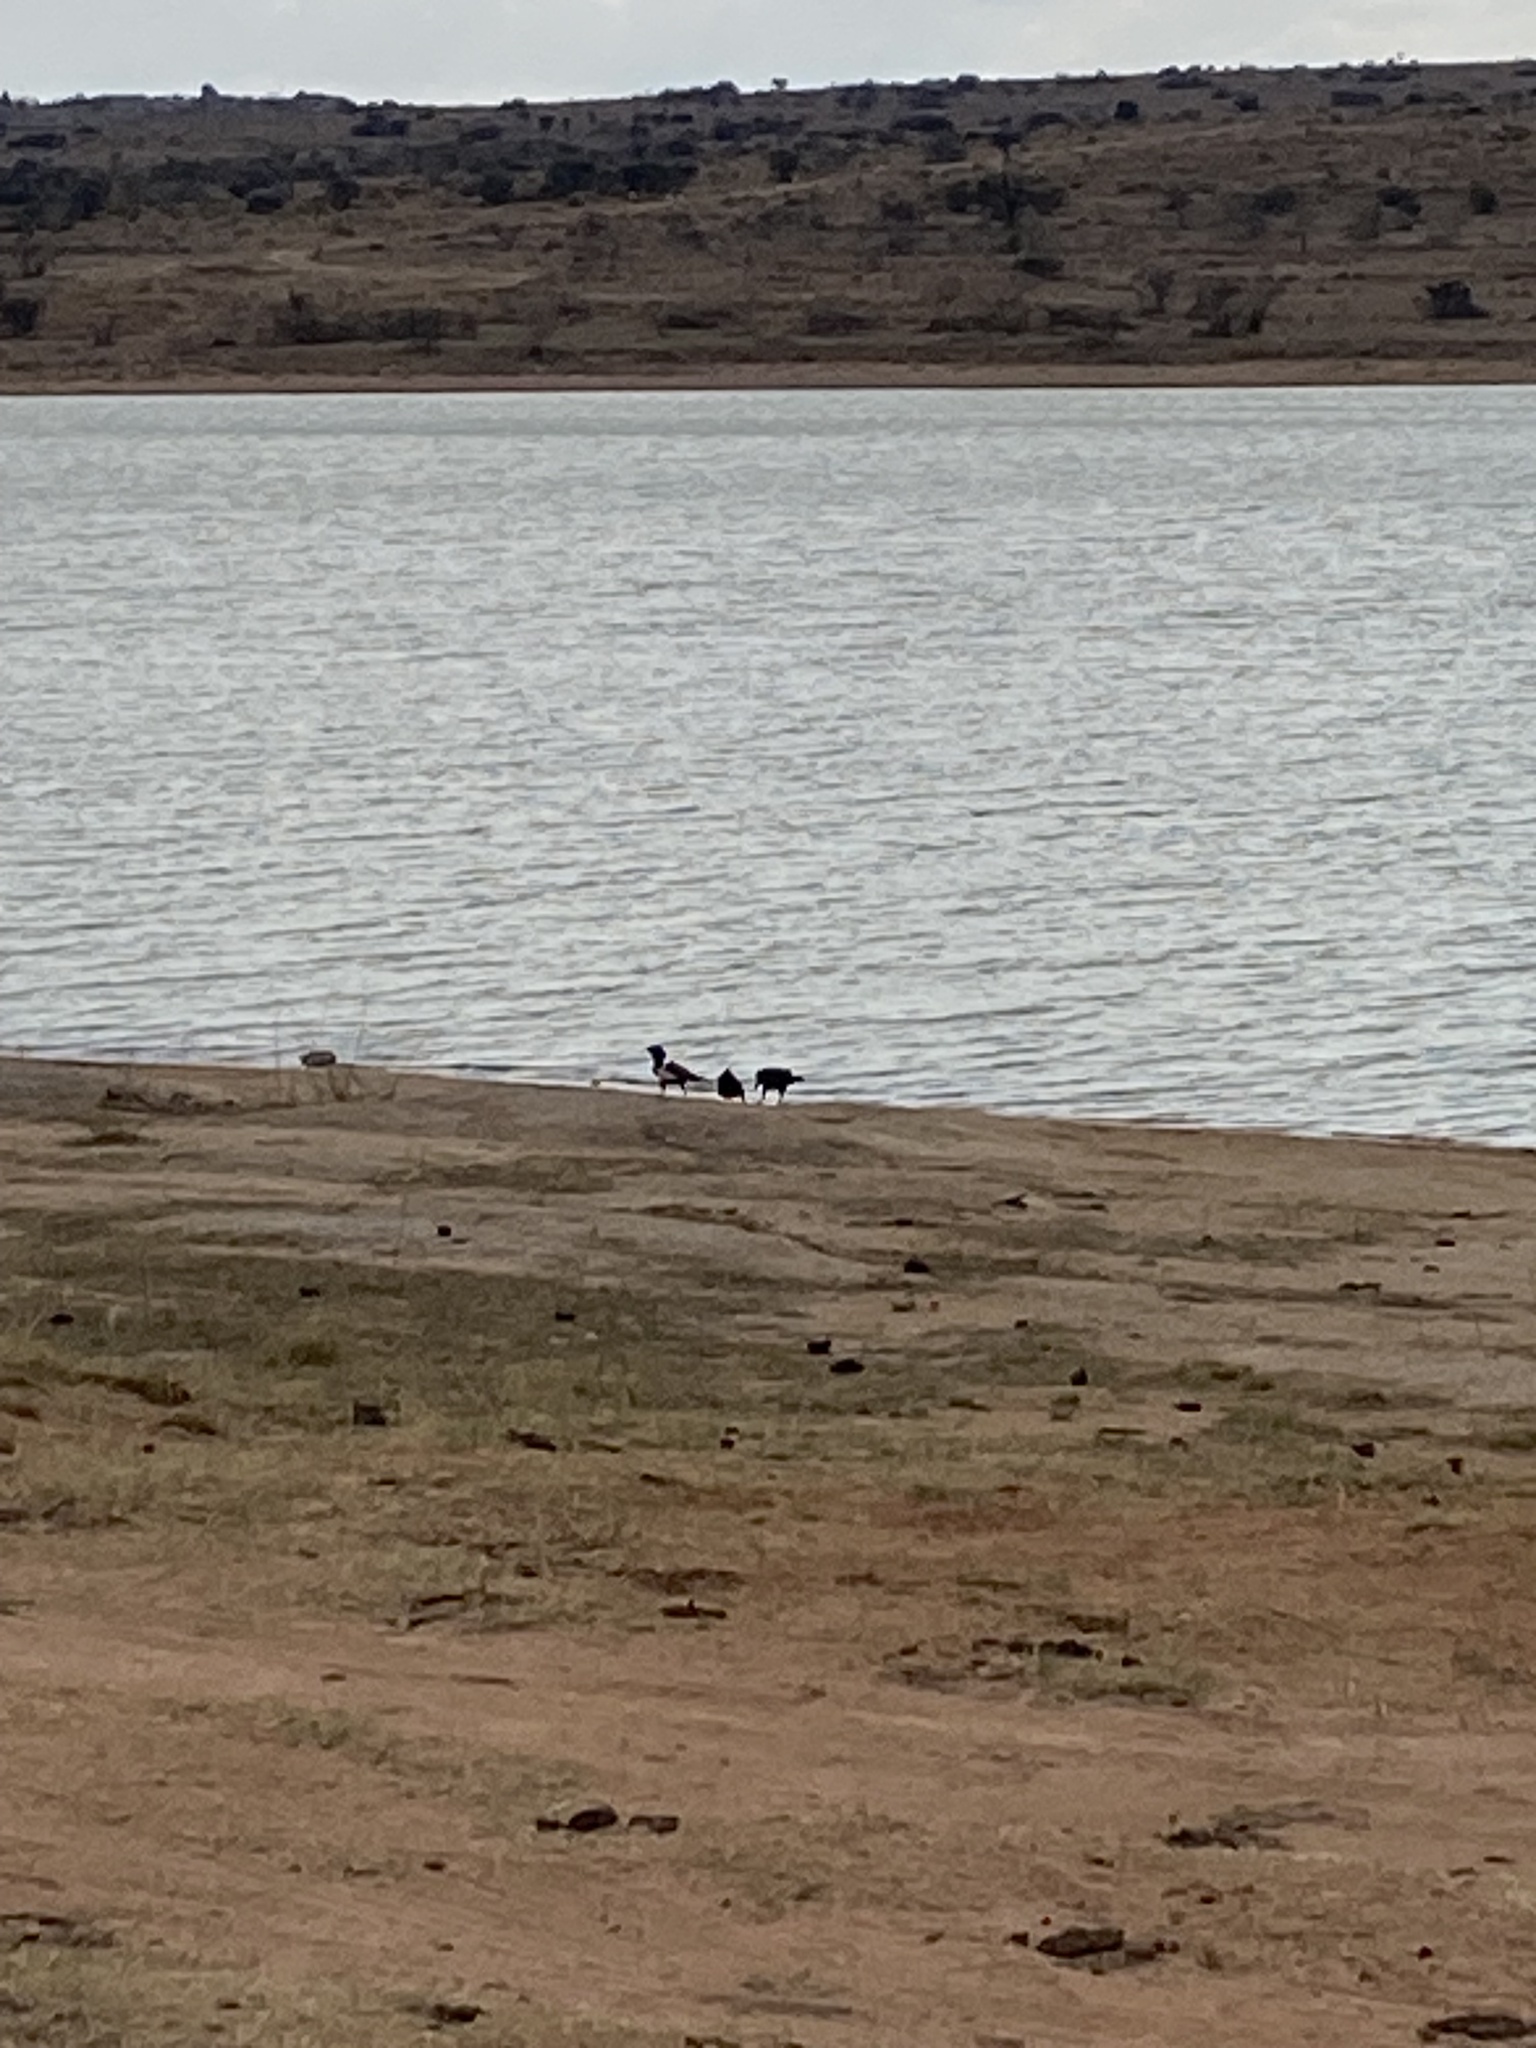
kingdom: Animalia
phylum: Chordata
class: Aves
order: Passeriformes
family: Corvidae
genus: Corvus
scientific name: Corvus albus
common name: Pied crow
